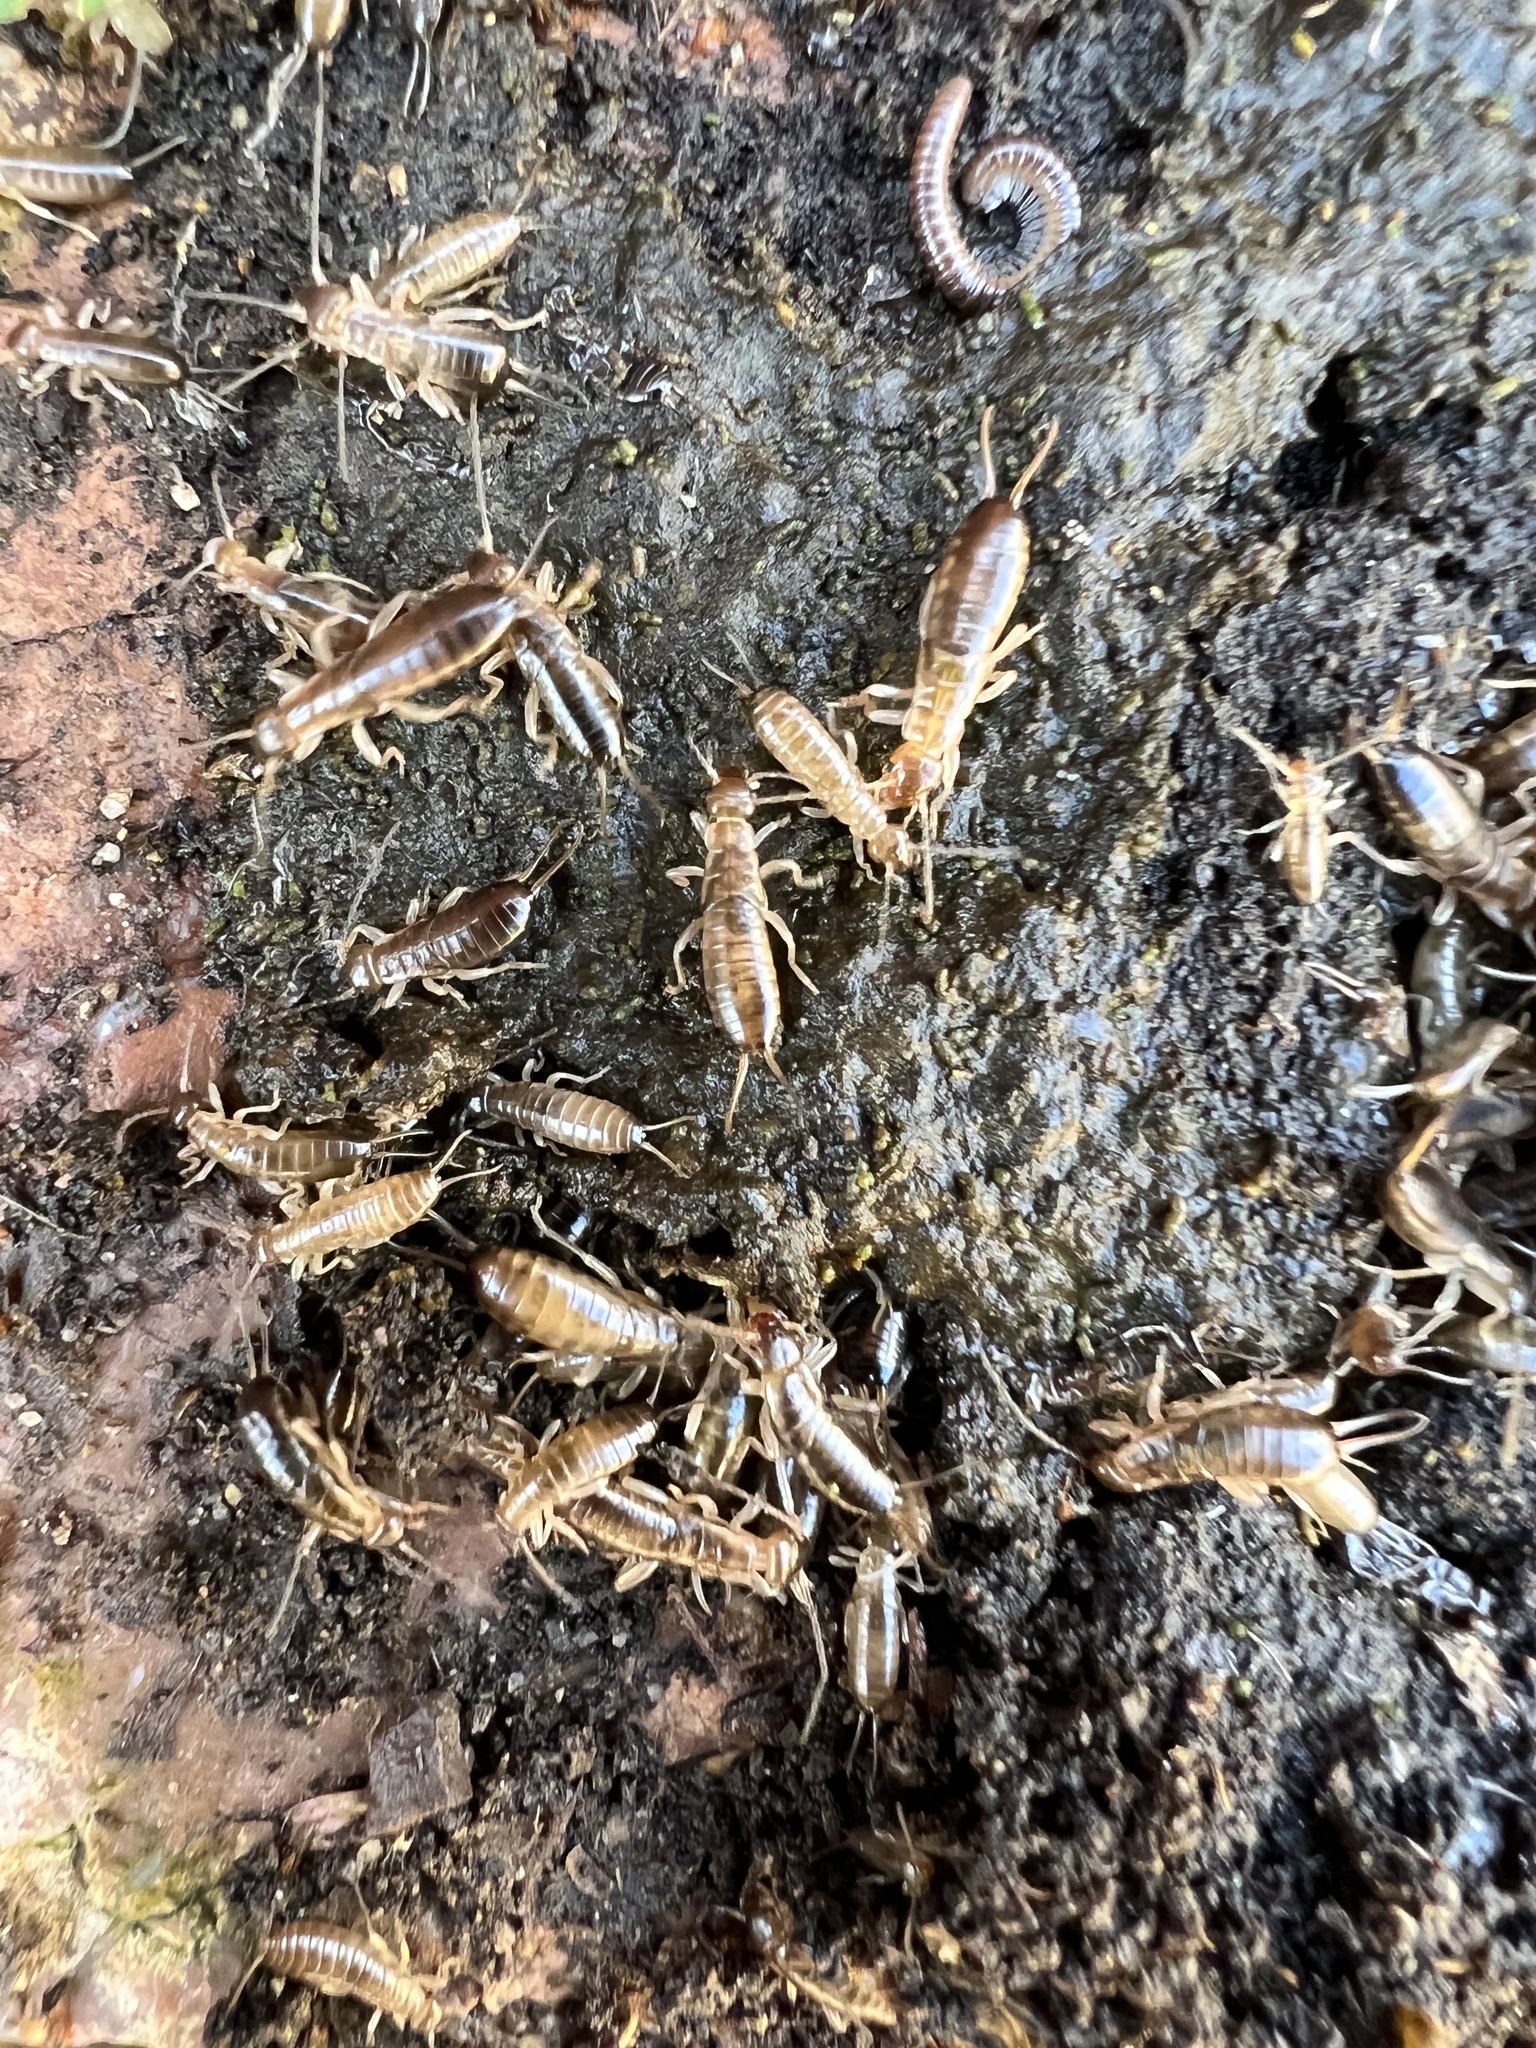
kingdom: Animalia
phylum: Arthropoda
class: Insecta
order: Dermaptera
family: Forficulidae
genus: Forficula
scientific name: Forficula dentata
